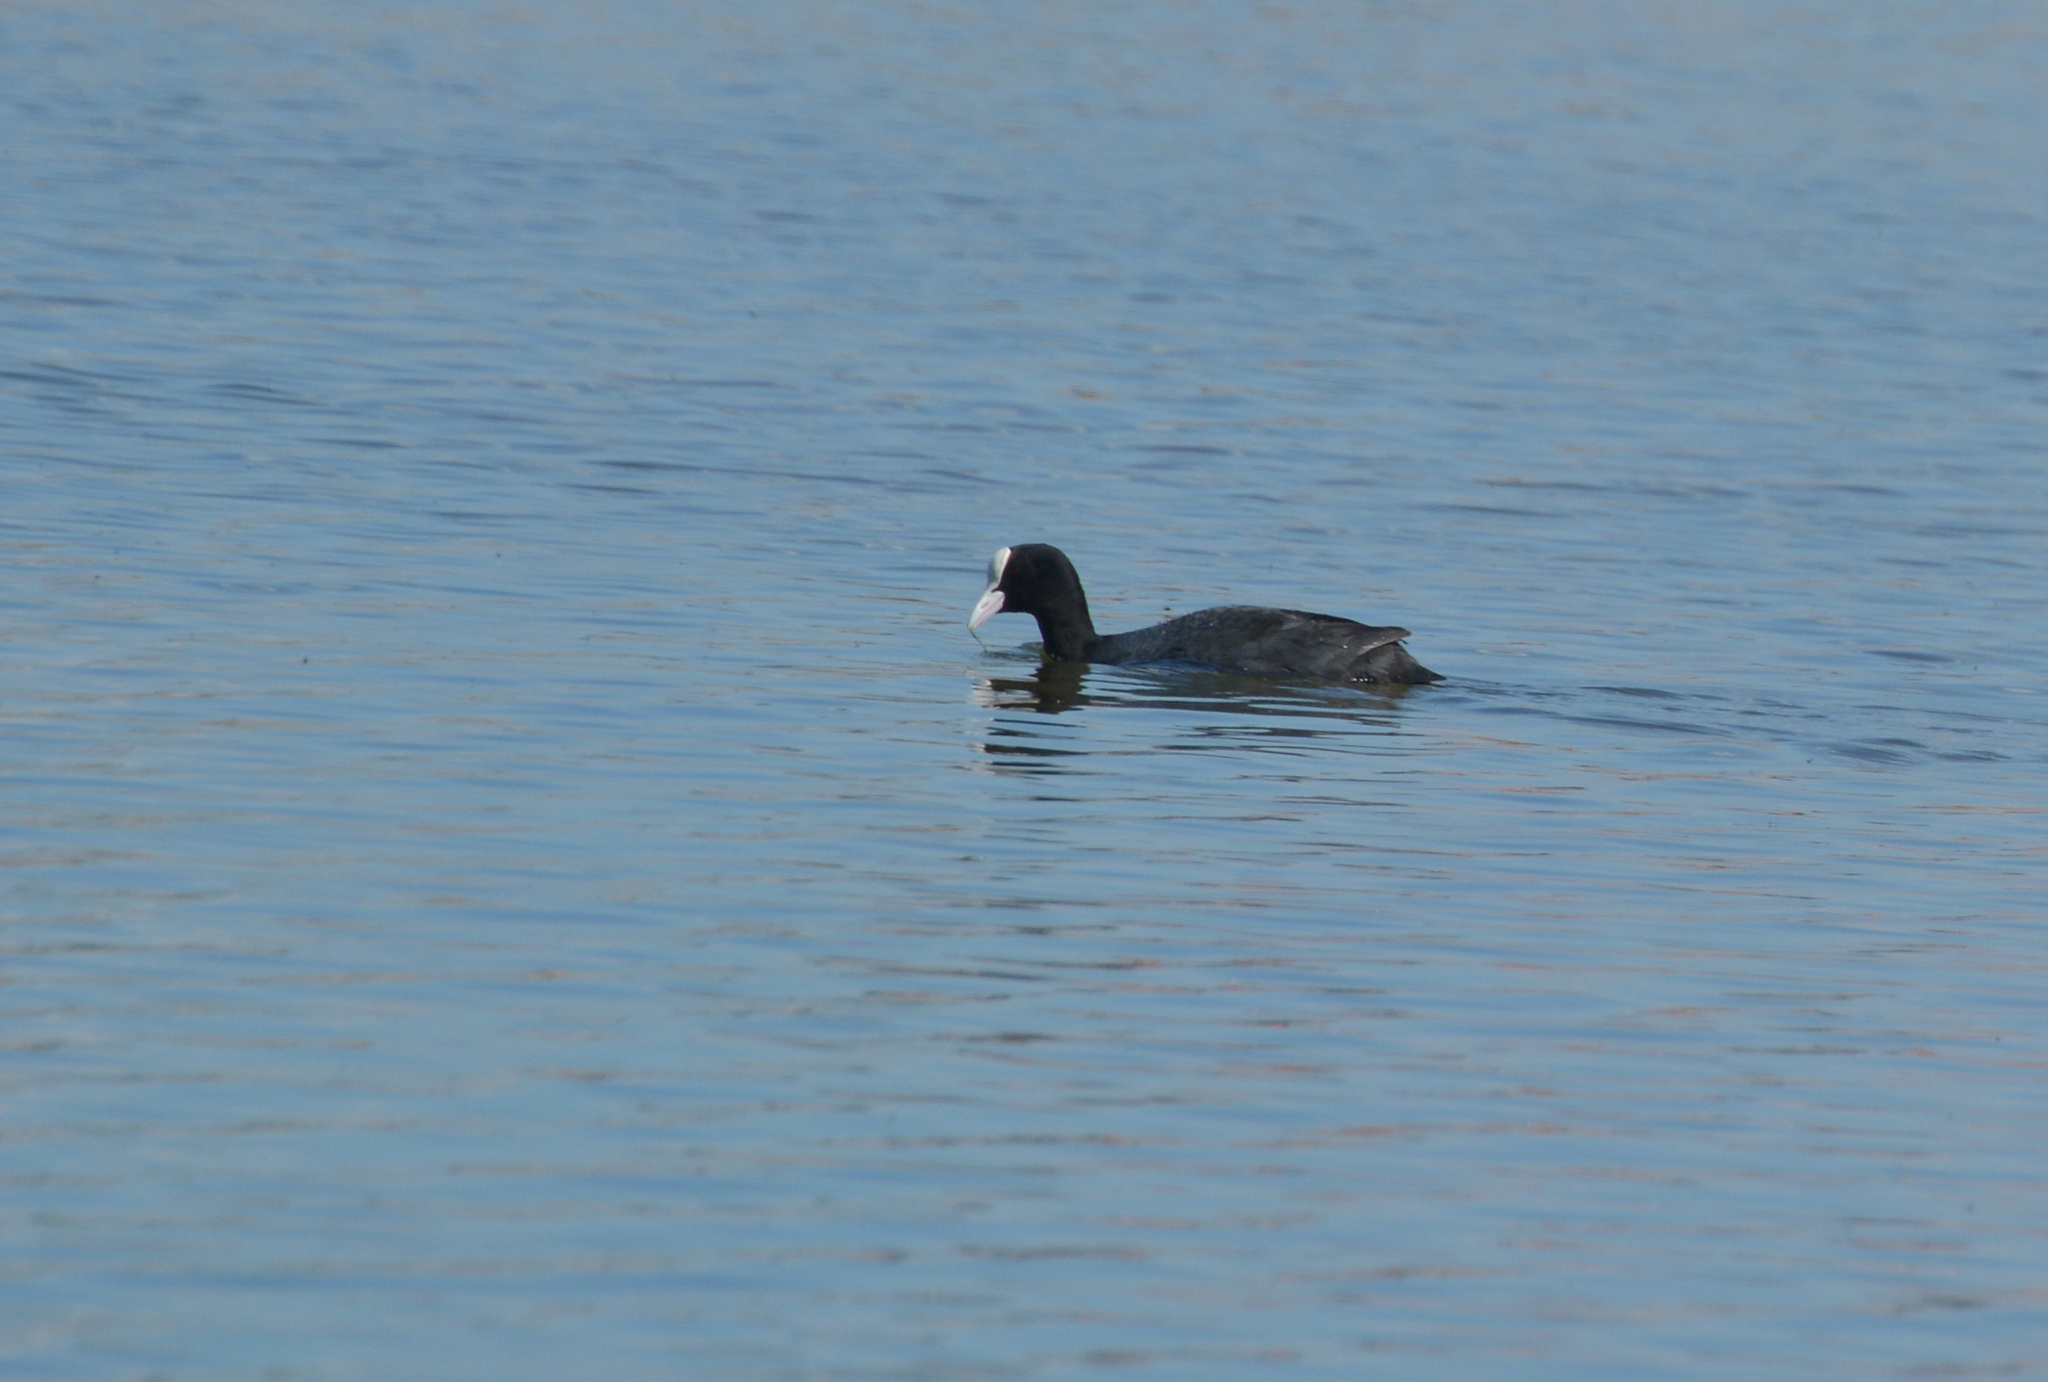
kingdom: Animalia
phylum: Chordata
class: Aves
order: Gruiformes
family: Rallidae
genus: Fulica
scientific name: Fulica atra
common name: Eurasian coot
